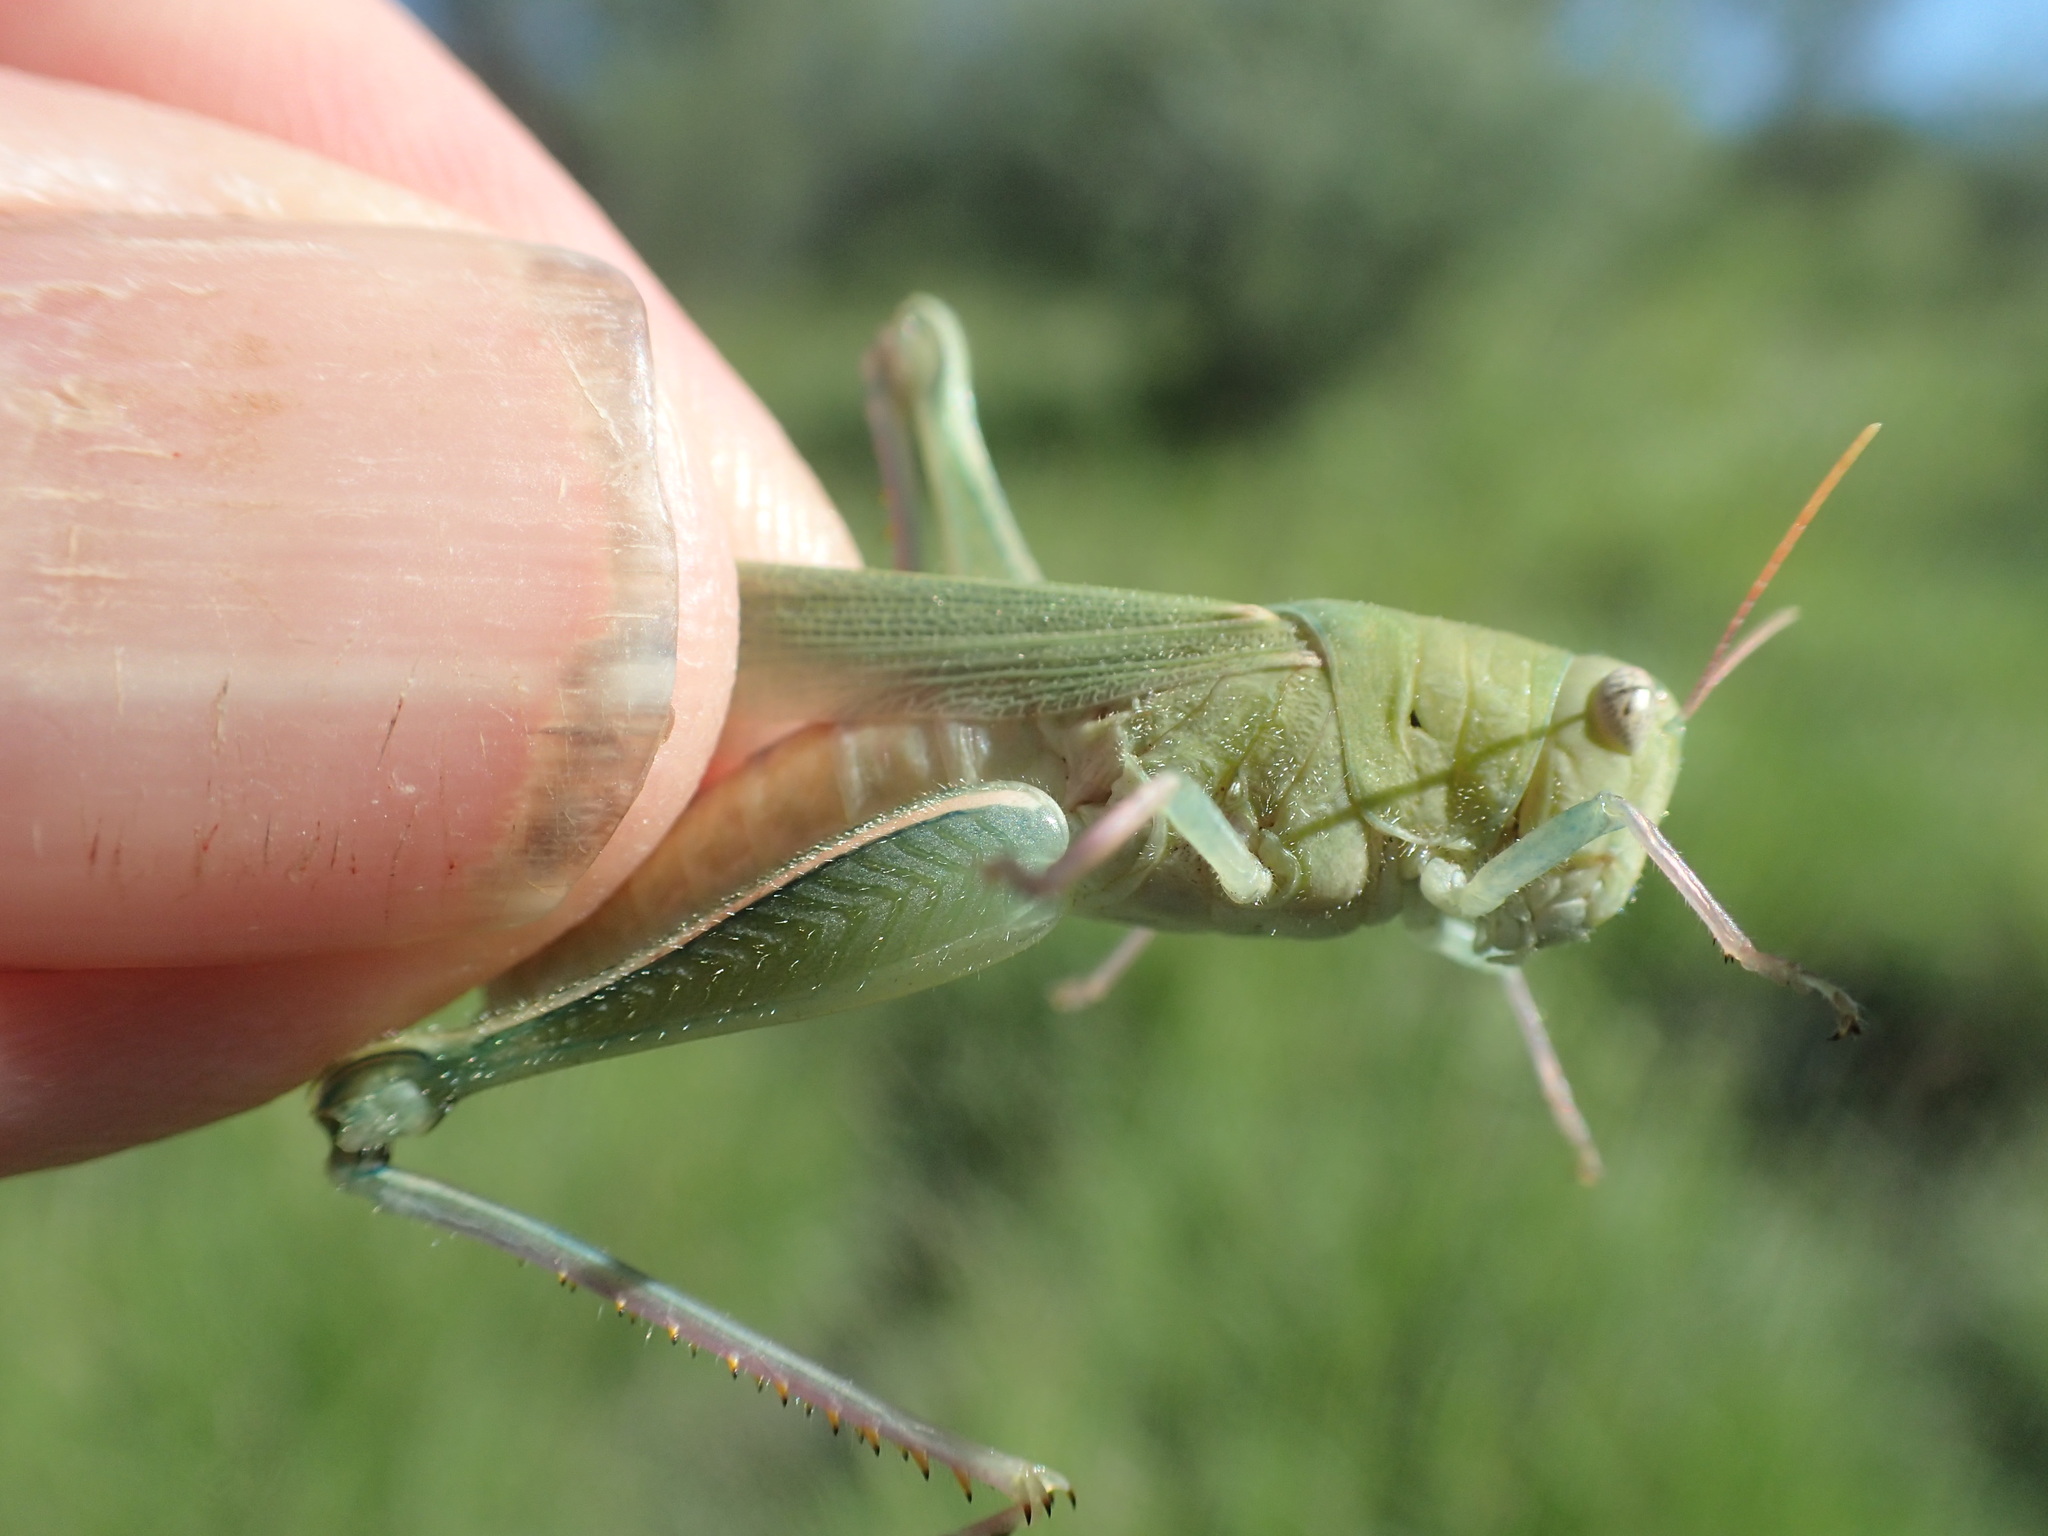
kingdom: Animalia
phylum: Arthropoda
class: Insecta
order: Orthoptera
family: Acrididae
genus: Happarana
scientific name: Happarana
